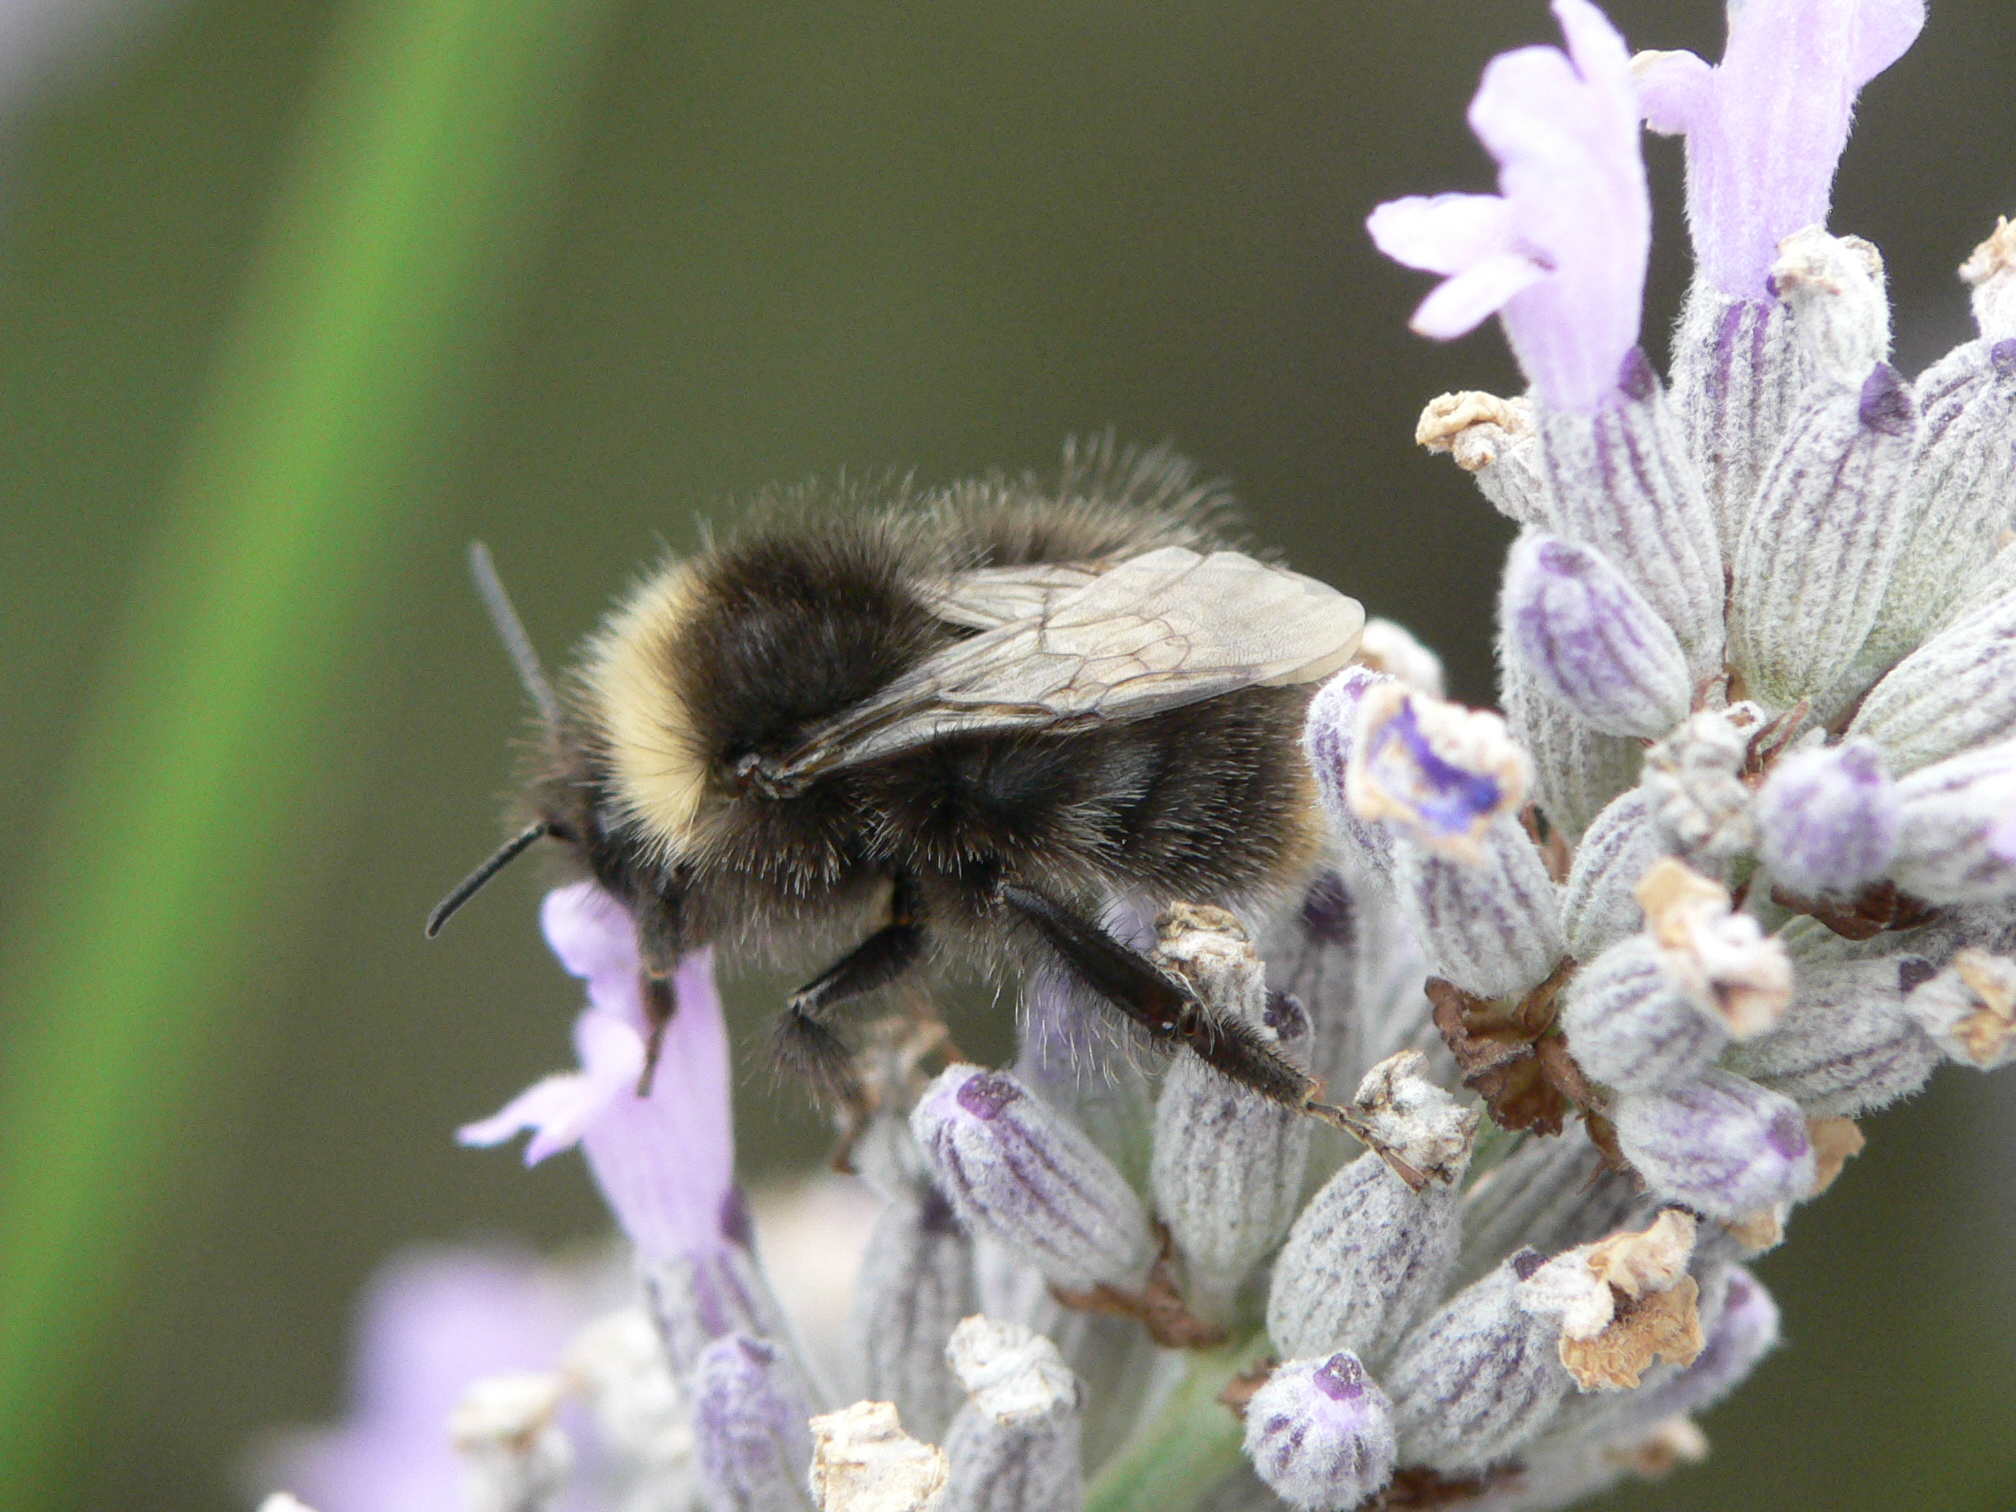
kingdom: Animalia
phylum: Arthropoda
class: Insecta
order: Hymenoptera
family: Apidae
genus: Bombus
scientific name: Bombus pratorum
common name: Early humble-bee
